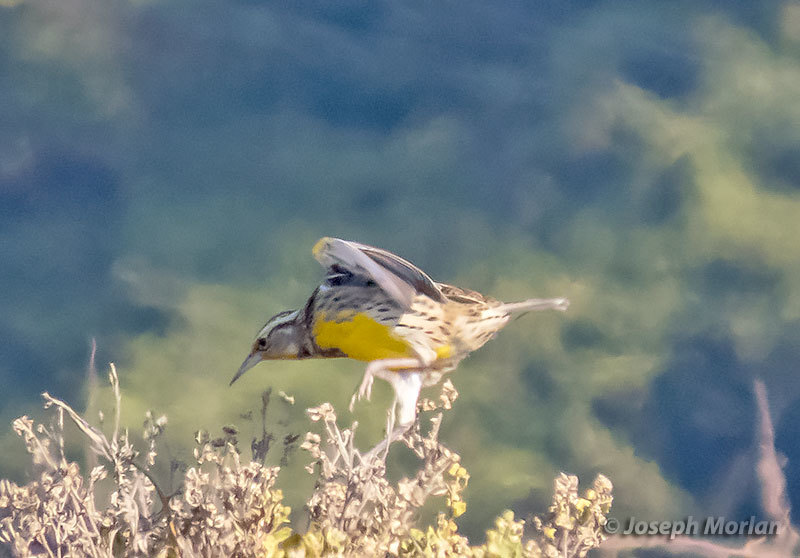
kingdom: Animalia
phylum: Chordata
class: Aves
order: Passeriformes
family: Icteridae
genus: Sturnella
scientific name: Sturnella neglecta
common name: Western meadowlark
